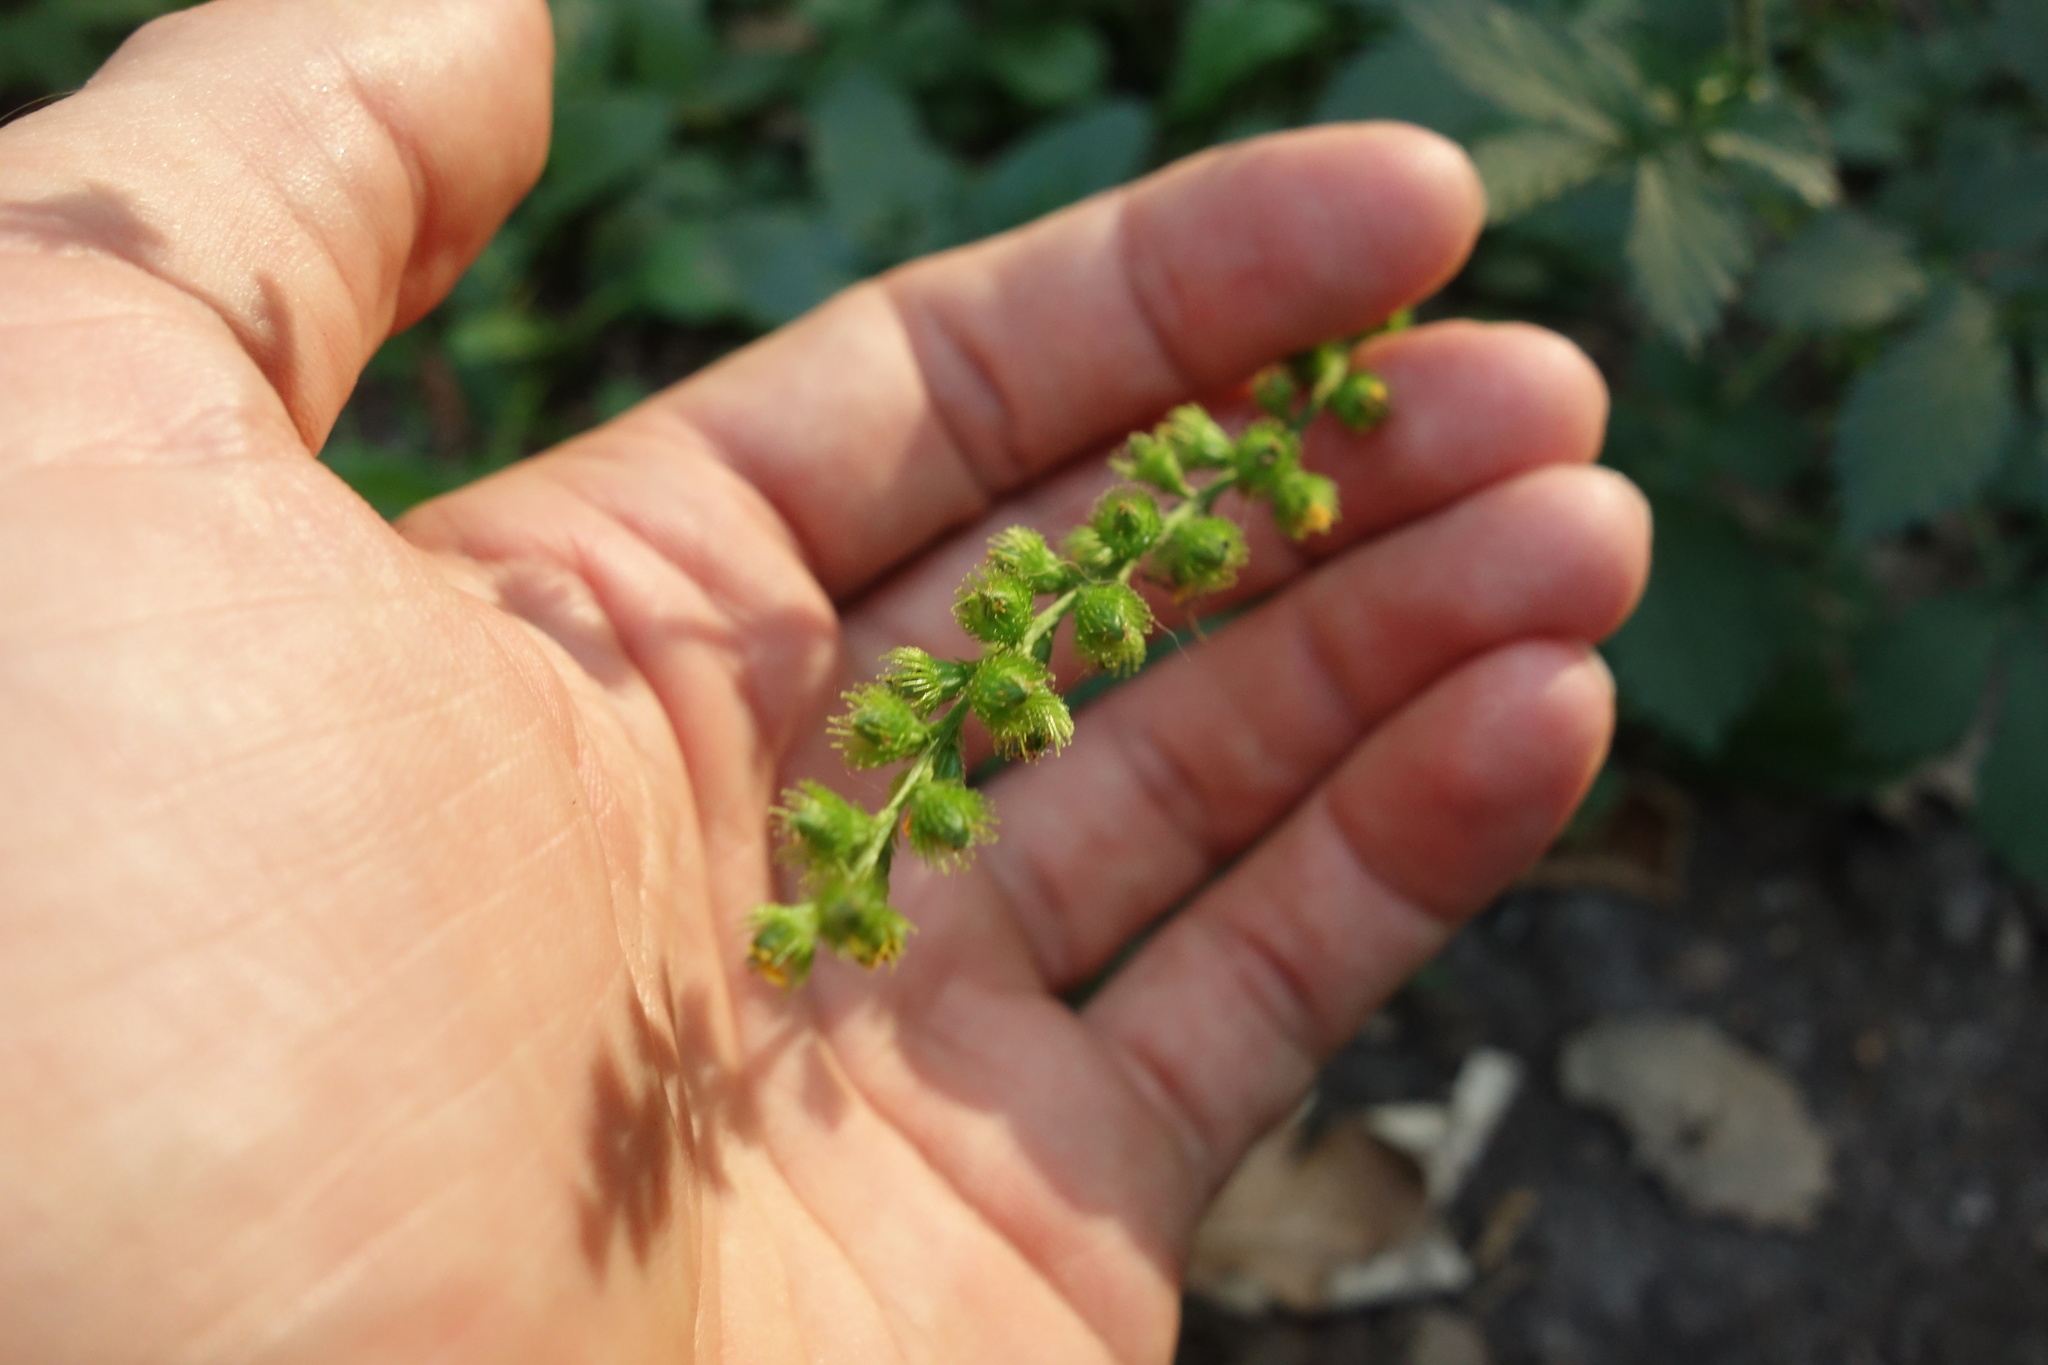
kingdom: Plantae
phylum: Tracheophyta
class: Magnoliopsida
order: Rosales
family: Rosaceae
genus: Agrimonia
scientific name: Agrimonia pilosa
